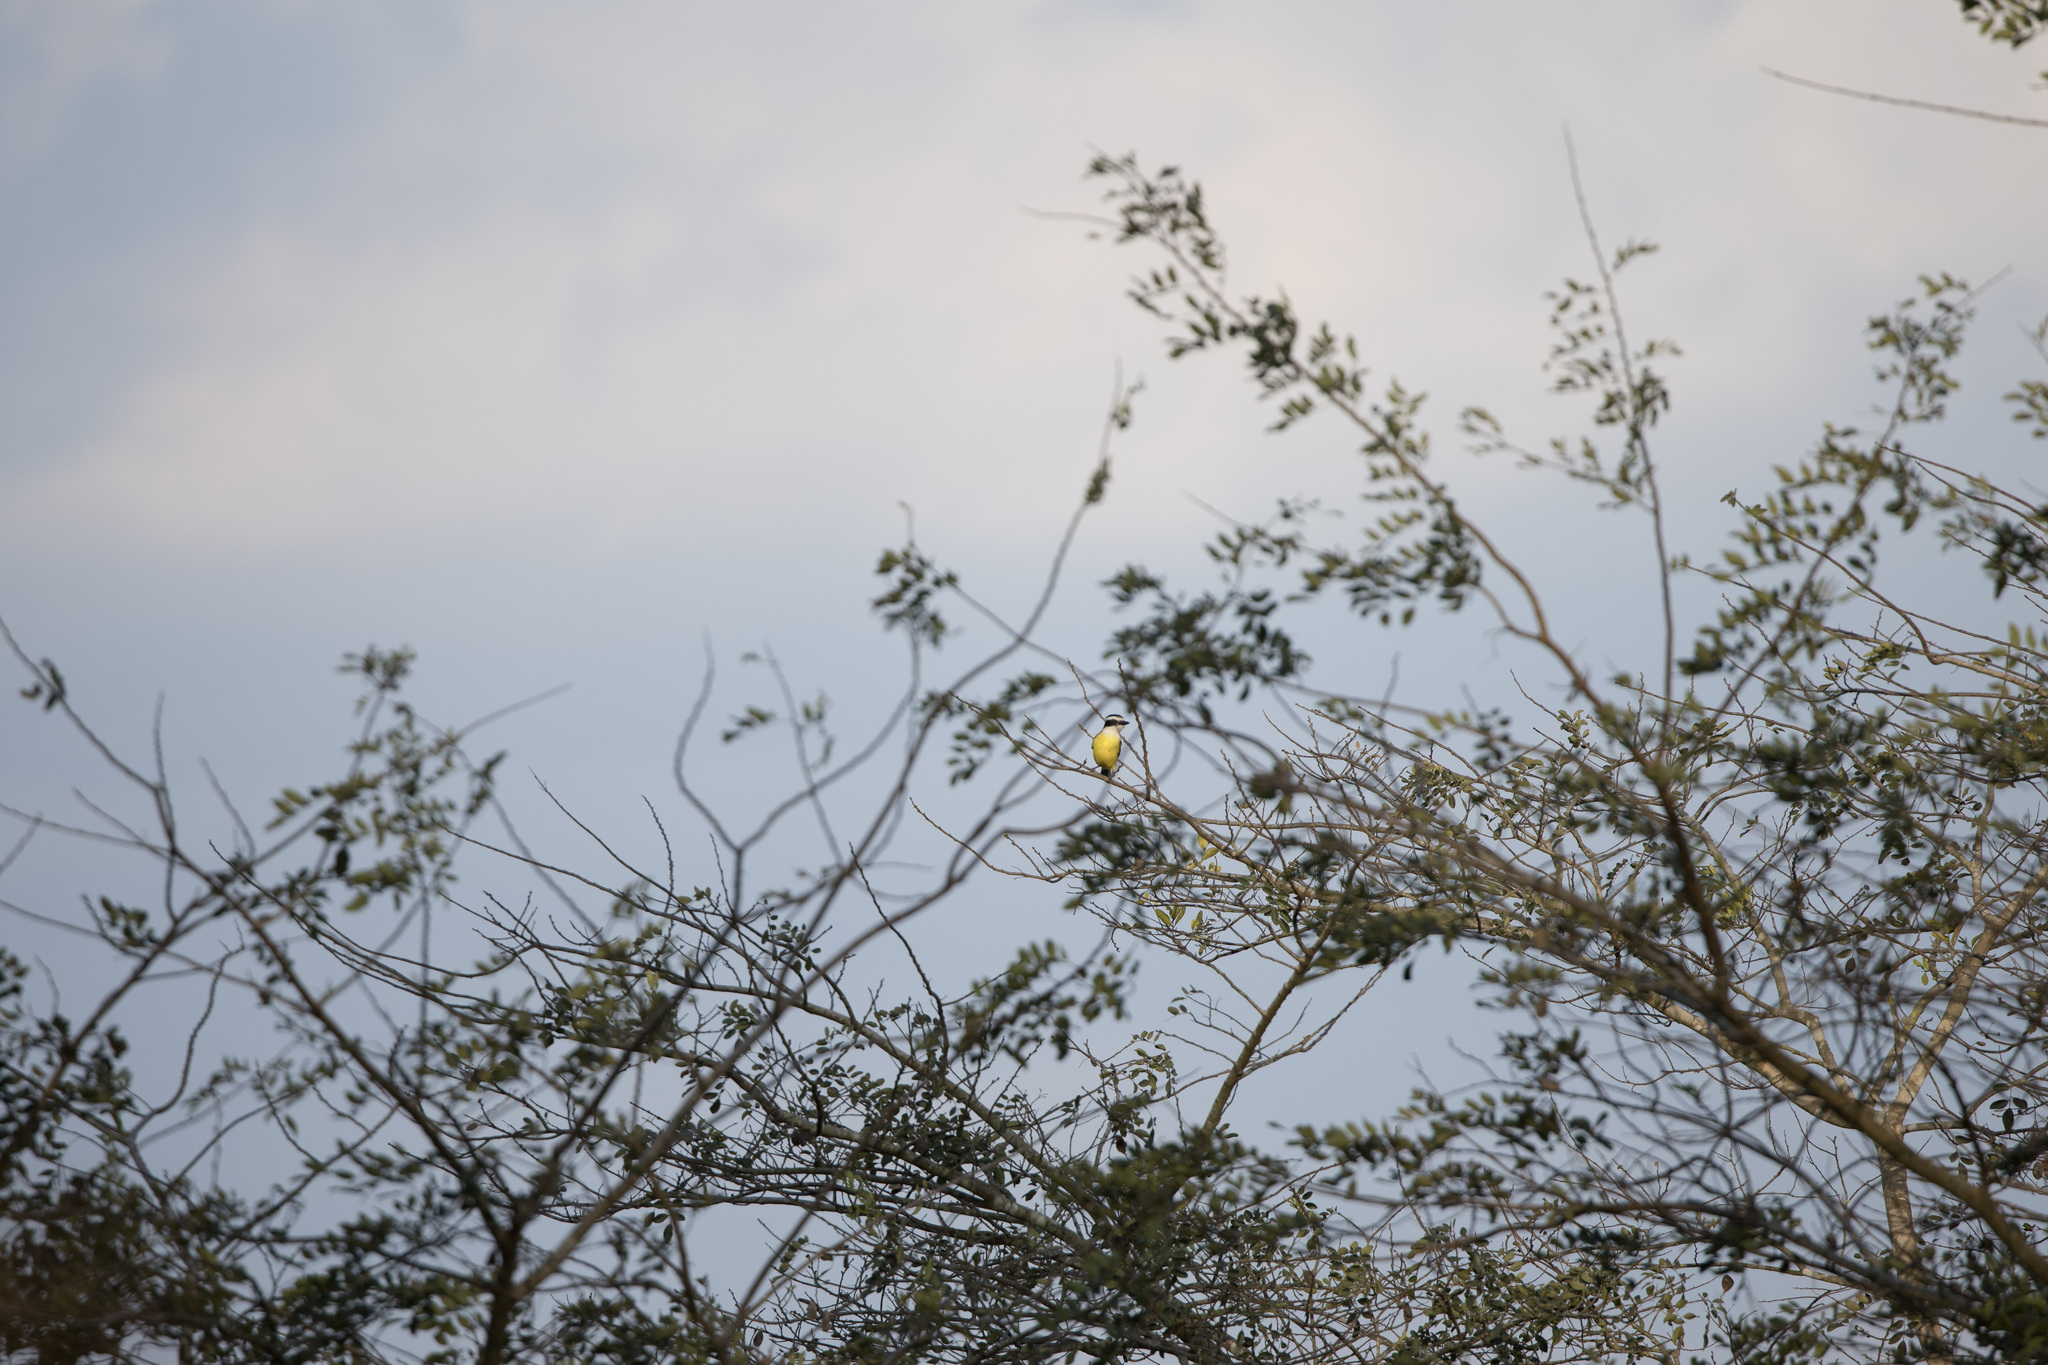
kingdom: Animalia
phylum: Chordata
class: Aves
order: Passeriformes
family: Tyrannidae
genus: Pitangus
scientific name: Pitangus sulphuratus
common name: Great kiskadee
